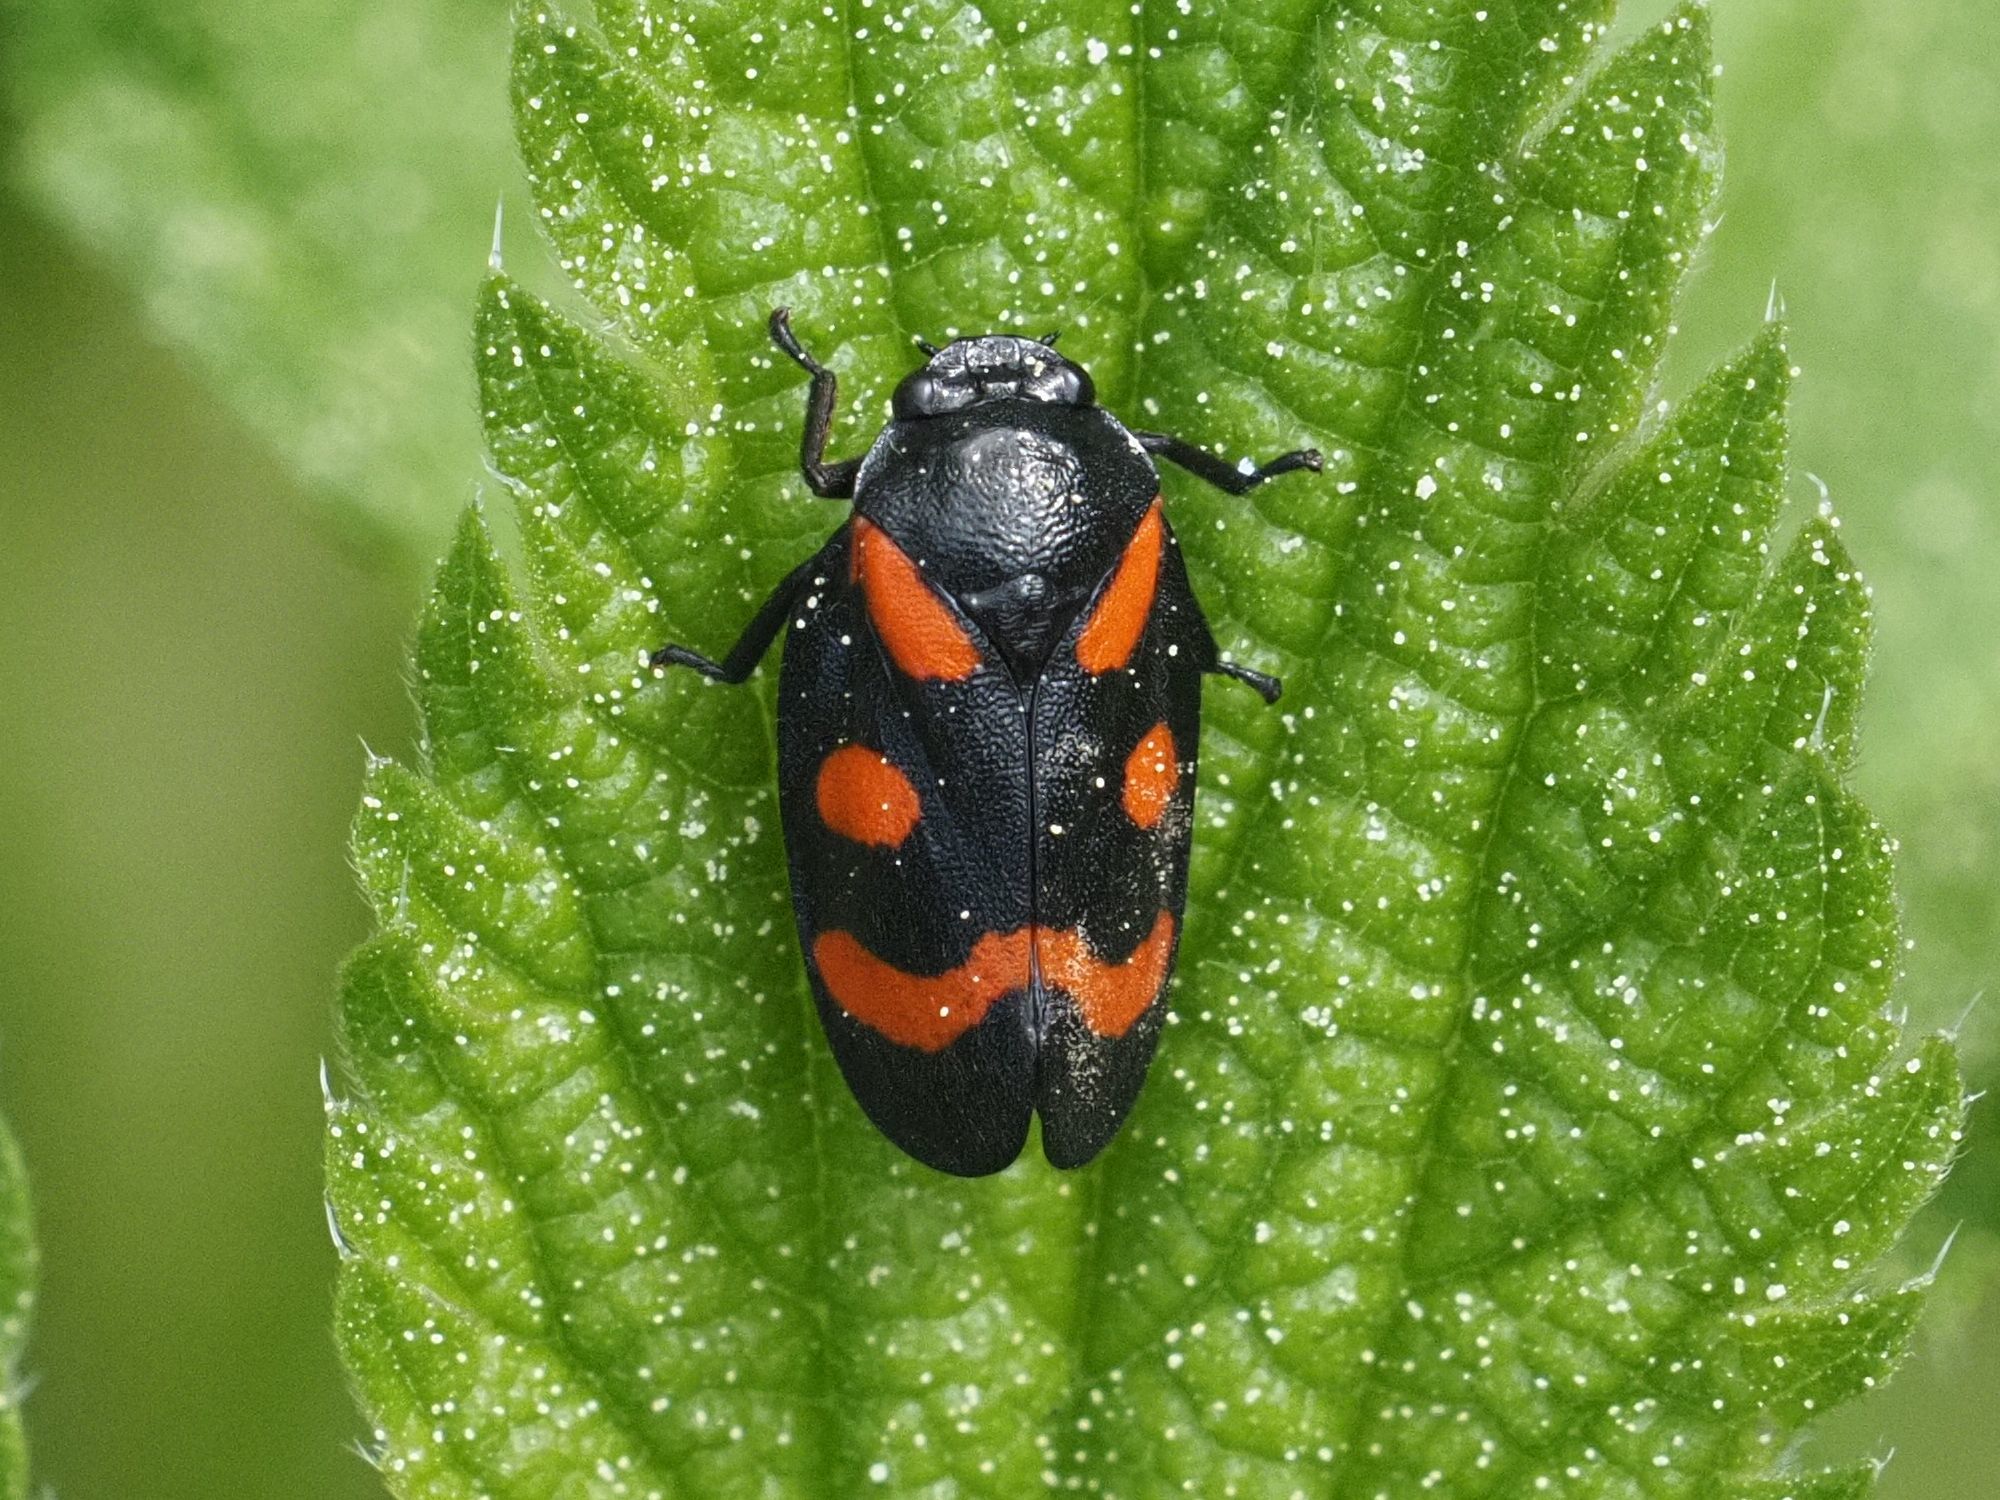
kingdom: Animalia
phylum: Arthropoda
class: Insecta
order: Hemiptera
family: Cercopidae
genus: Cercopis
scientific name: Cercopis
